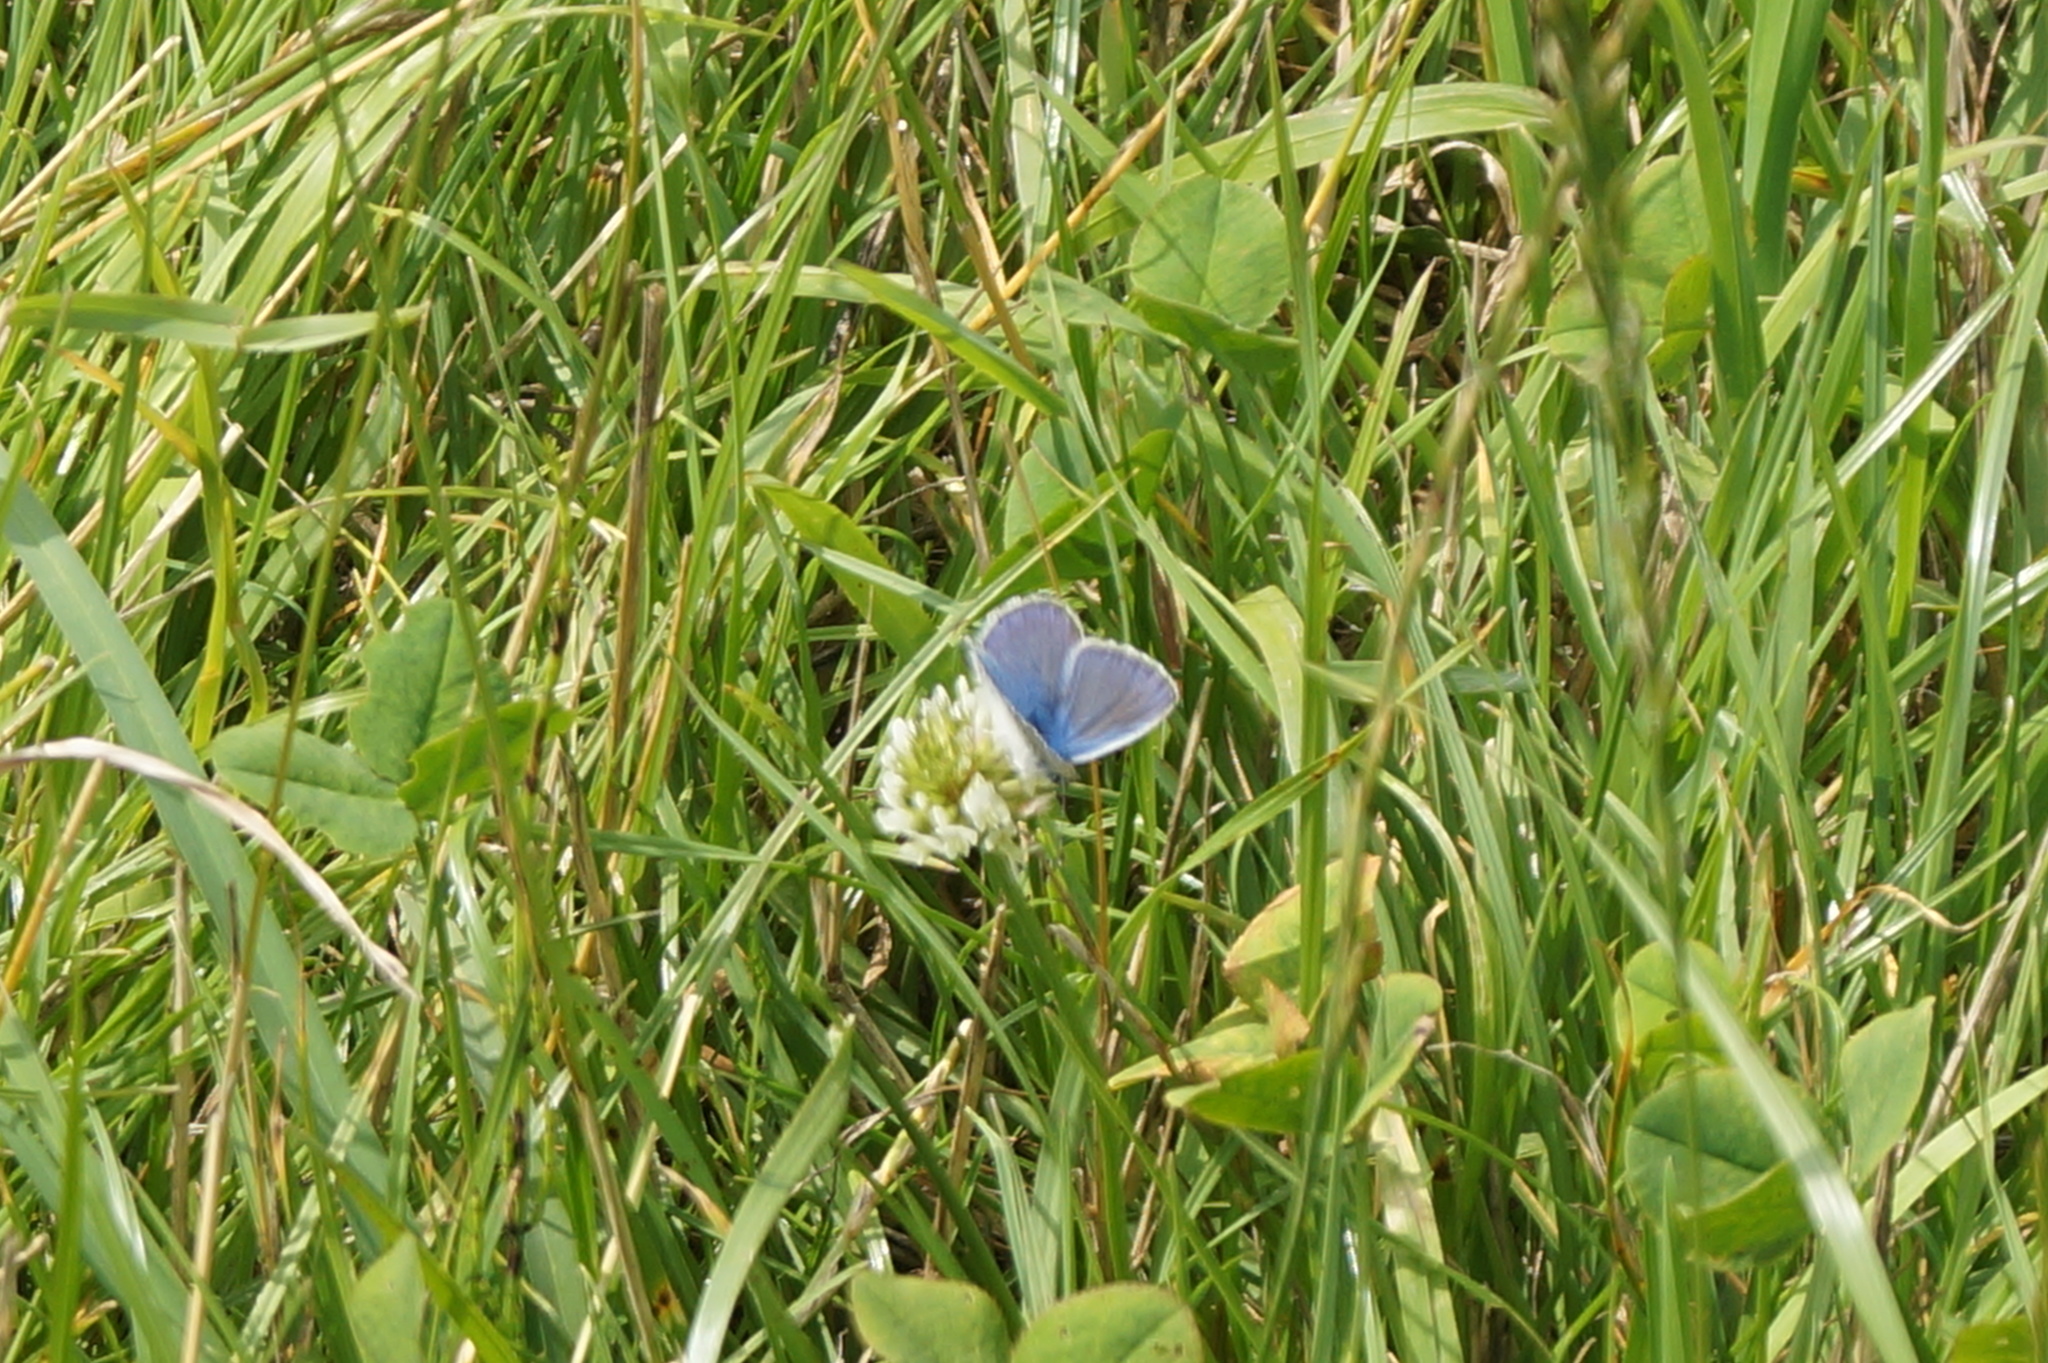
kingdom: Animalia
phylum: Arthropoda
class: Insecta
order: Lepidoptera
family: Lycaenidae
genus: Polyommatus
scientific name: Polyommatus icarus
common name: Common blue
